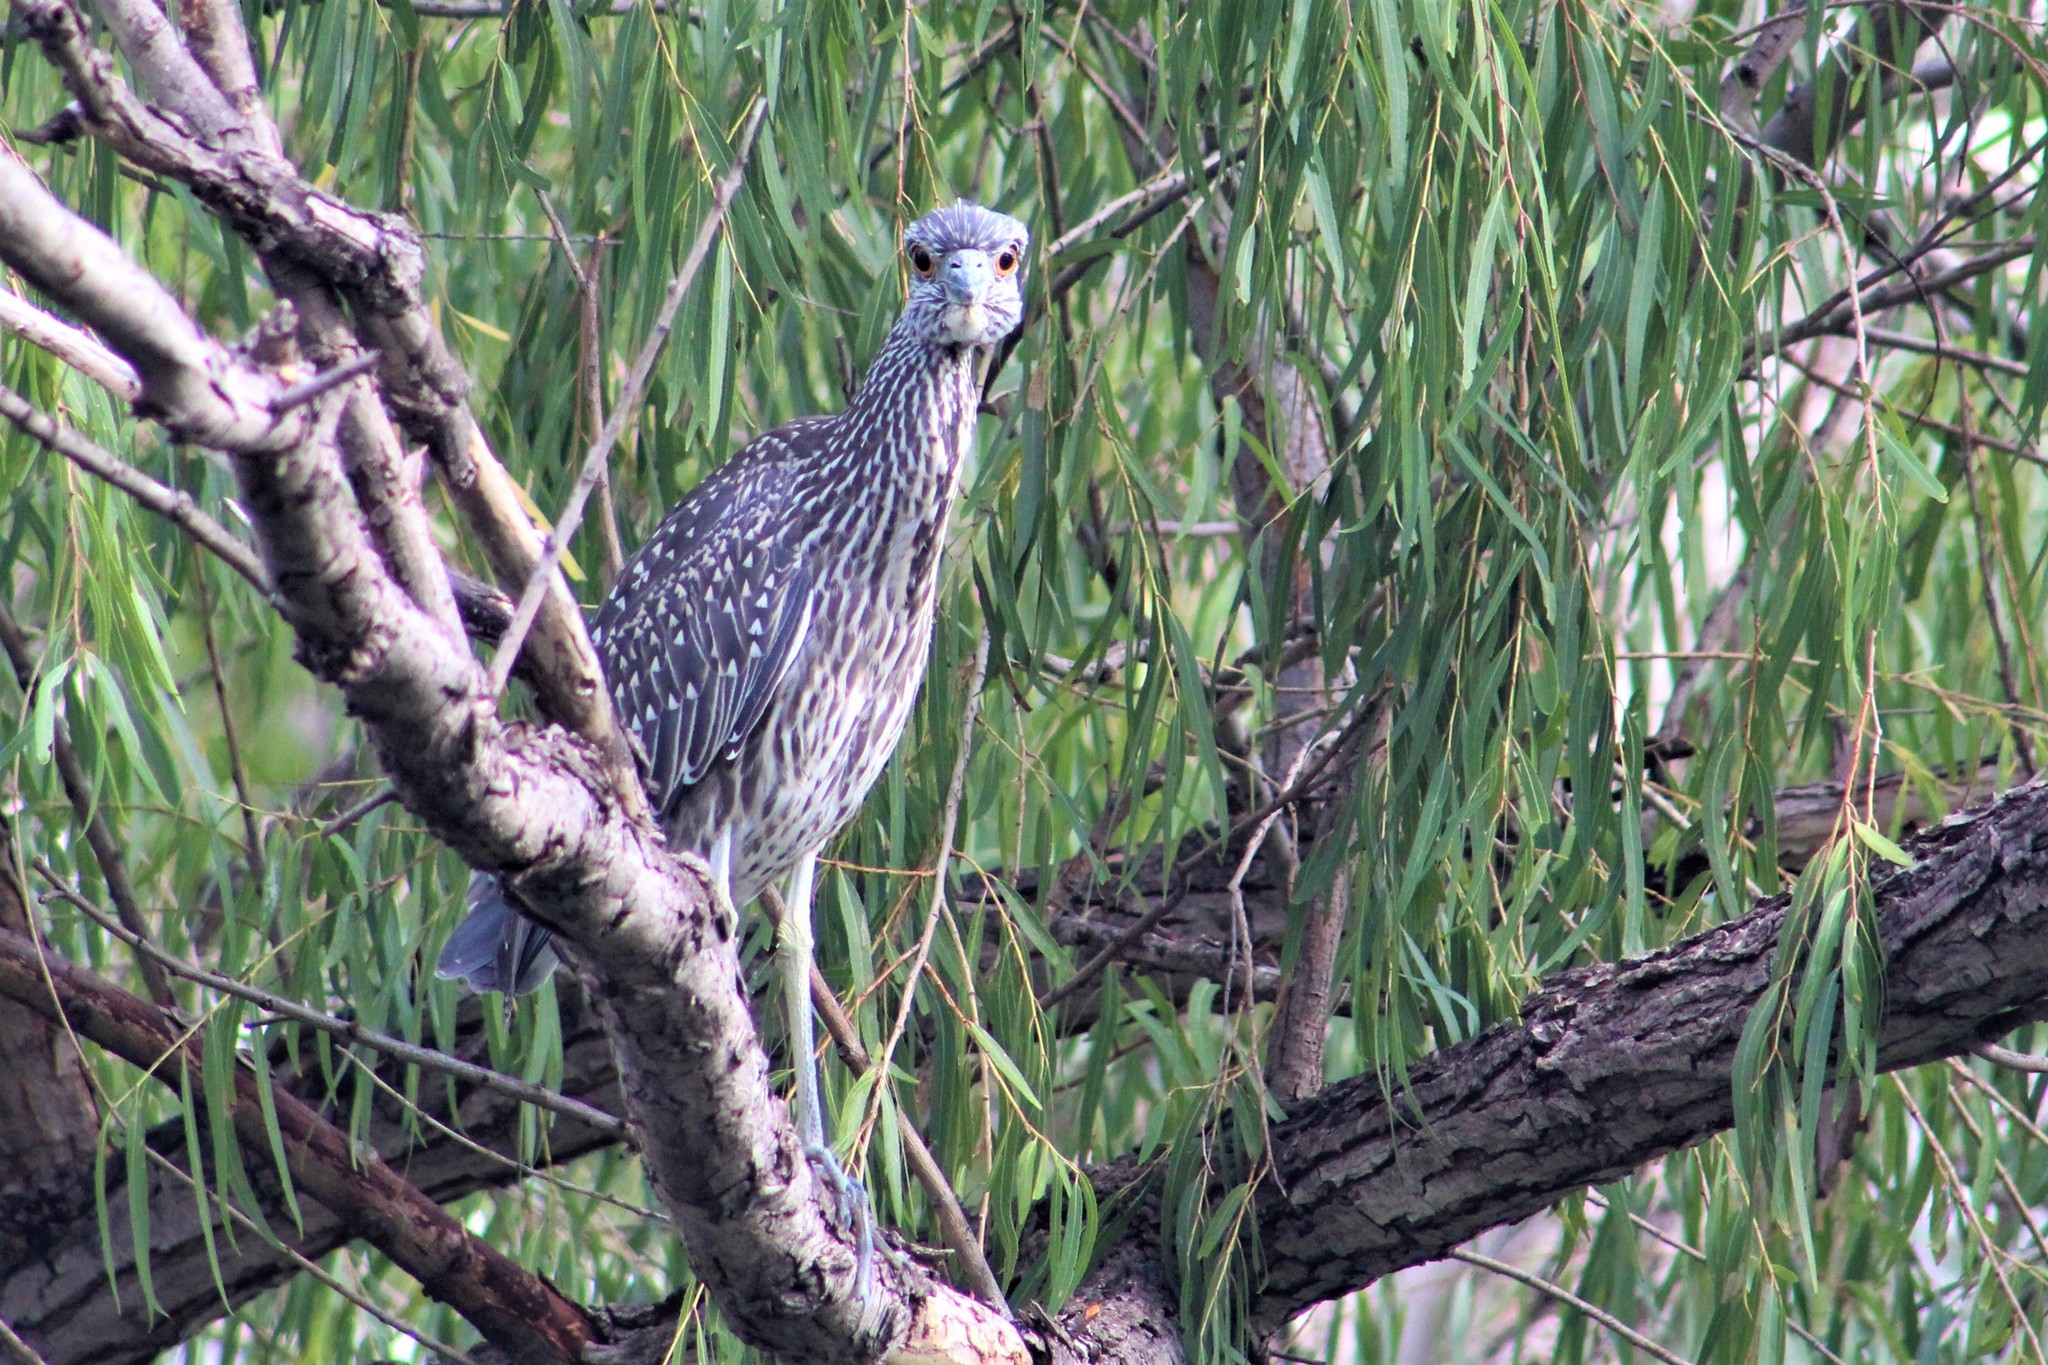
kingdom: Animalia
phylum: Chordata
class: Aves
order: Pelecaniformes
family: Ardeidae
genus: Nyctanassa
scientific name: Nyctanassa violacea
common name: Yellow-crowned night heron
